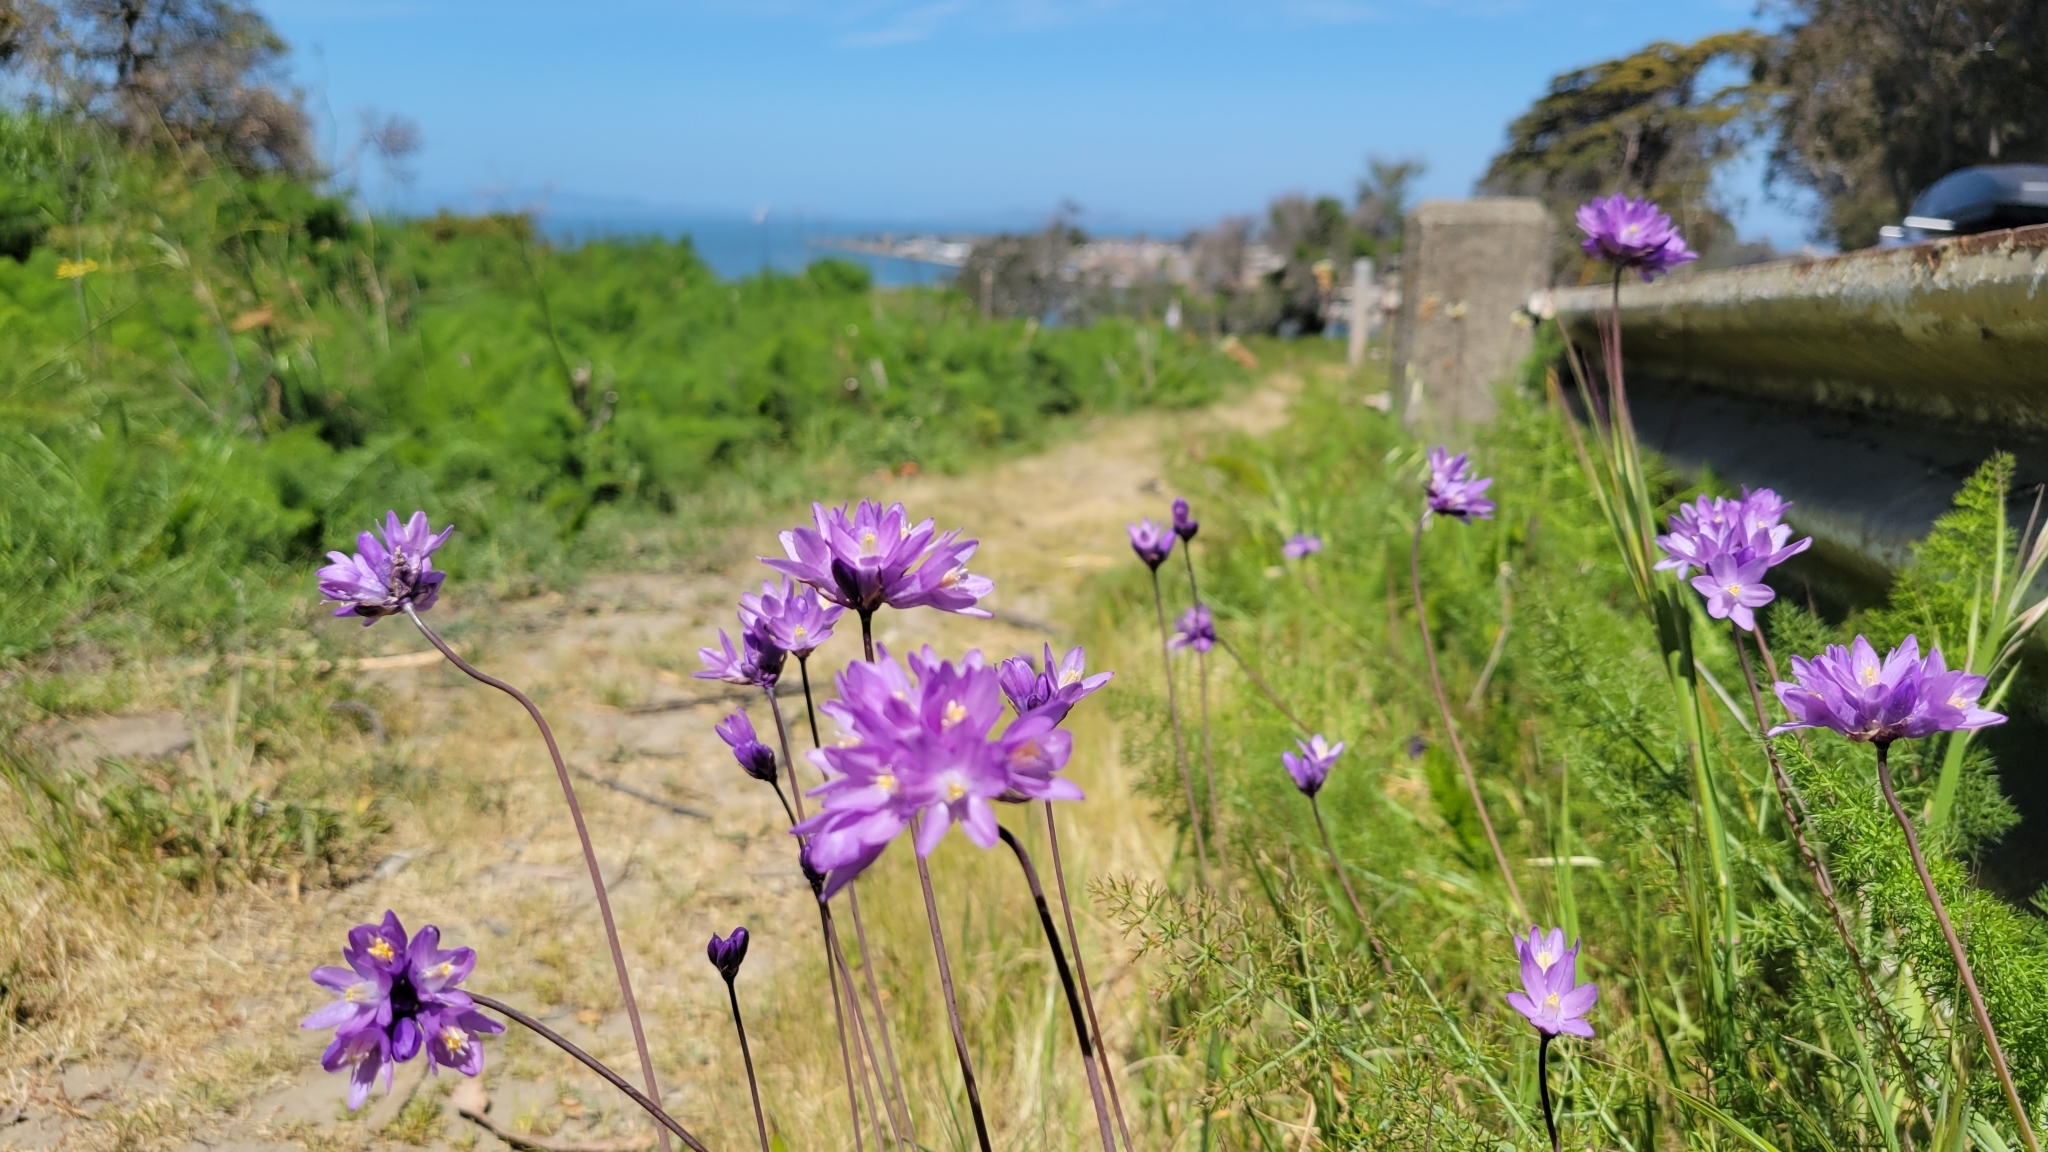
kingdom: Plantae
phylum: Tracheophyta
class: Liliopsida
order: Asparagales
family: Asparagaceae
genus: Dipterostemon
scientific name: Dipterostemon capitatus
